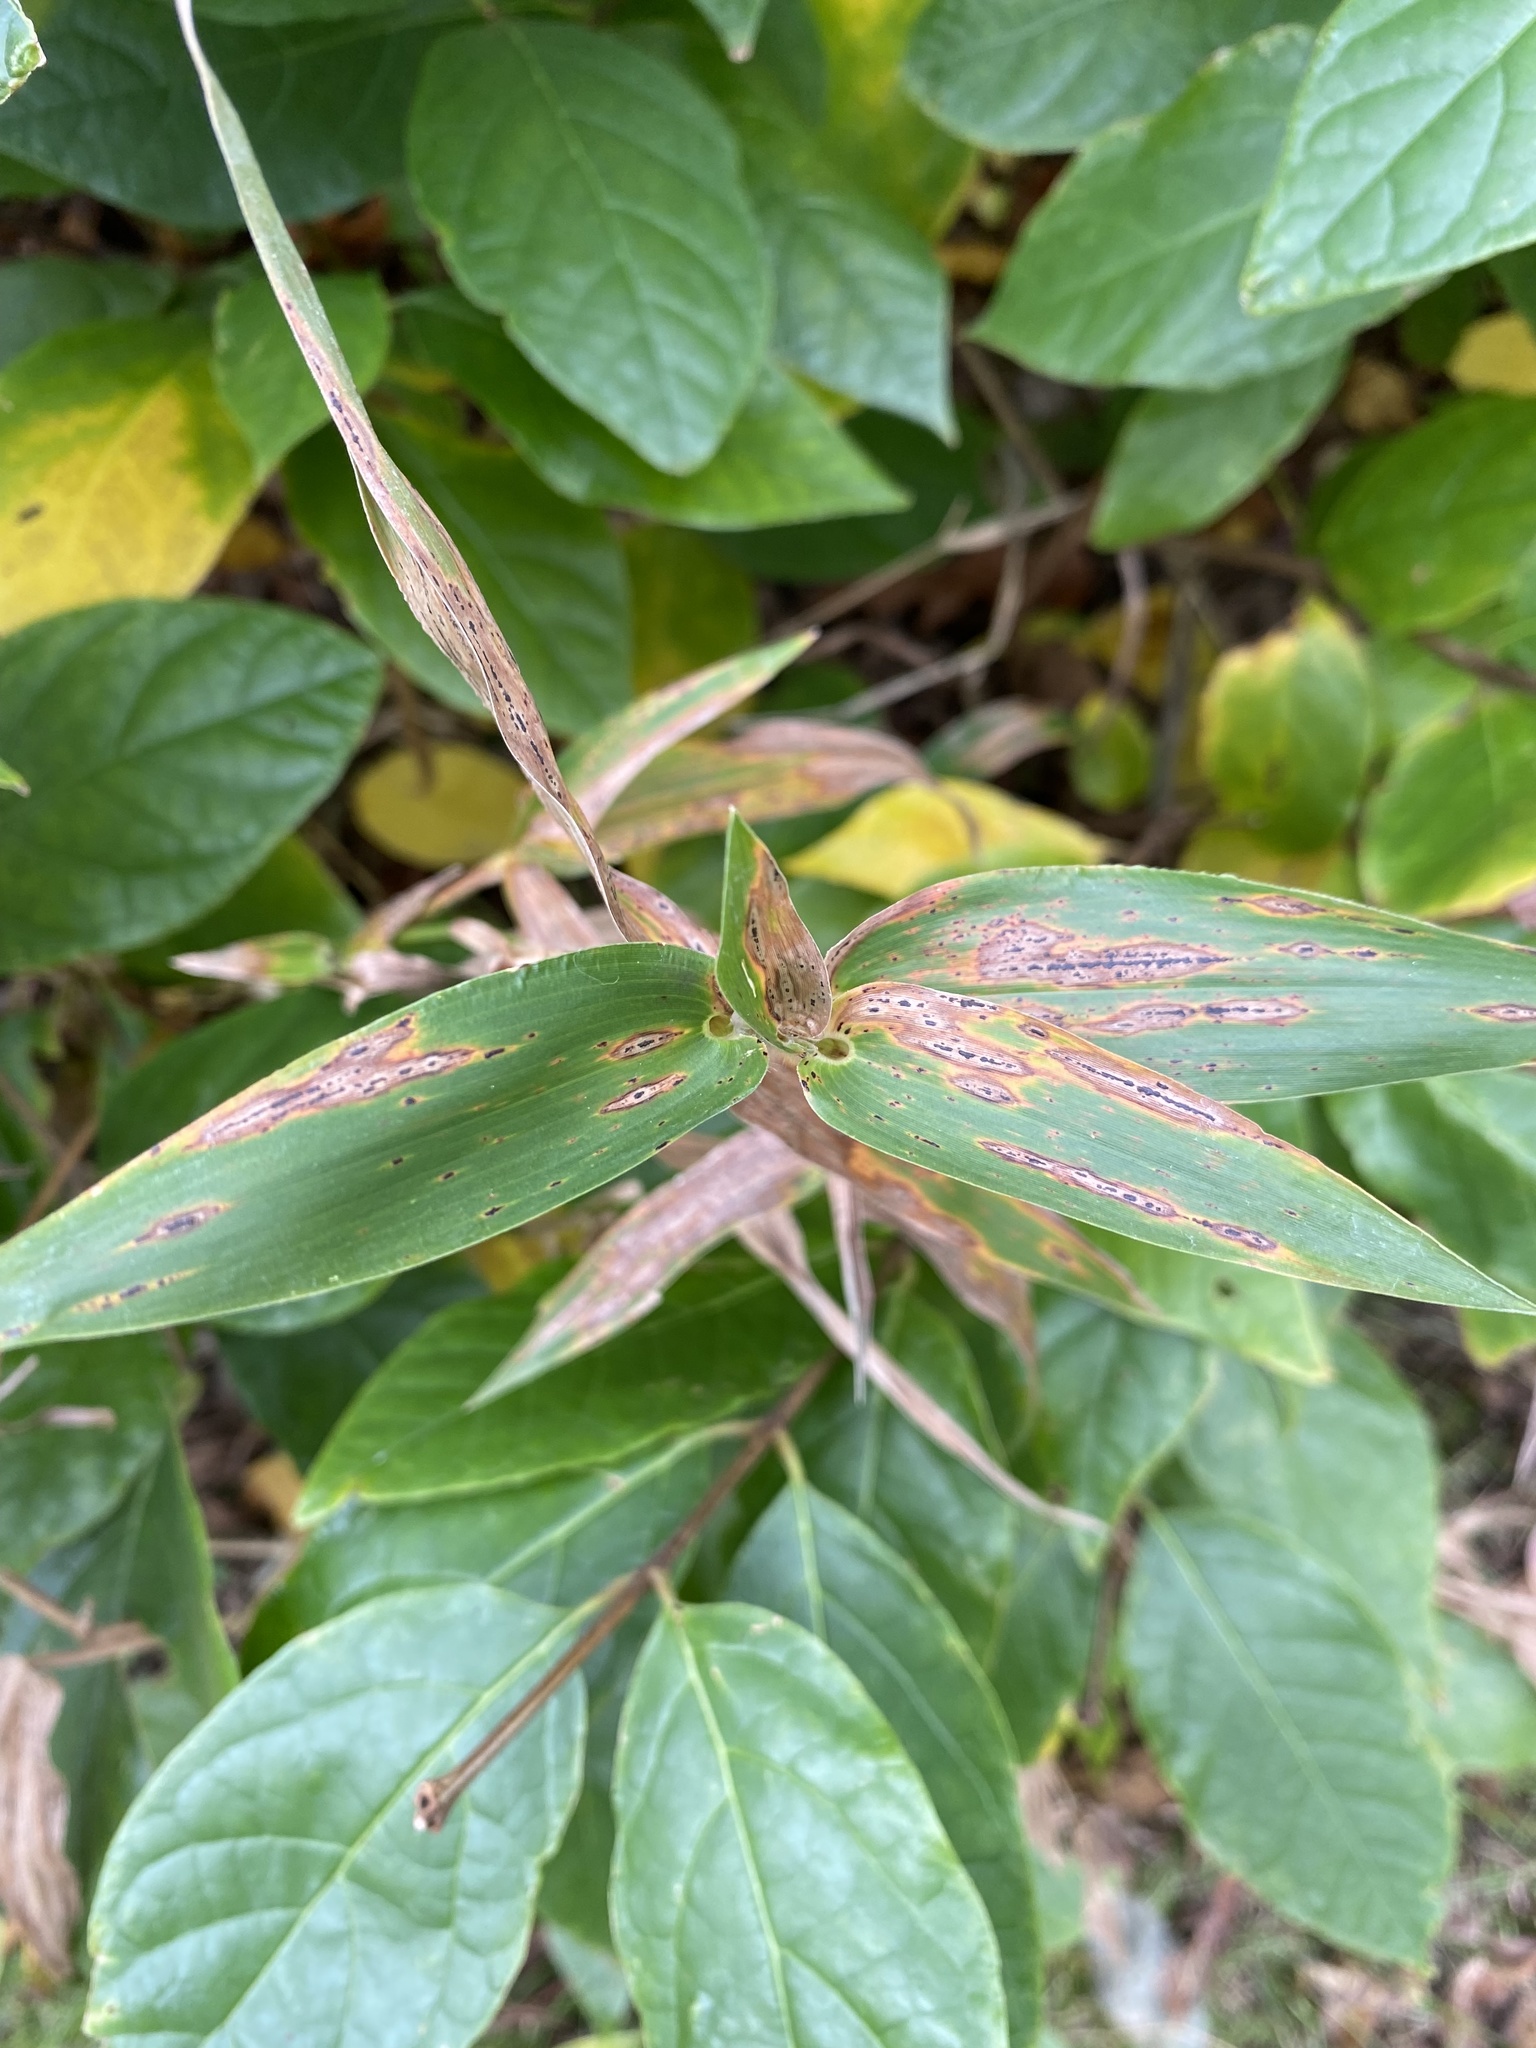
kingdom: Plantae
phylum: Tracheophyta
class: Liliopsida
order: Poales
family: Poaceae
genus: Dichanthelium
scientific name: Dichanthelium clandestinum
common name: Deer-tongue grass
